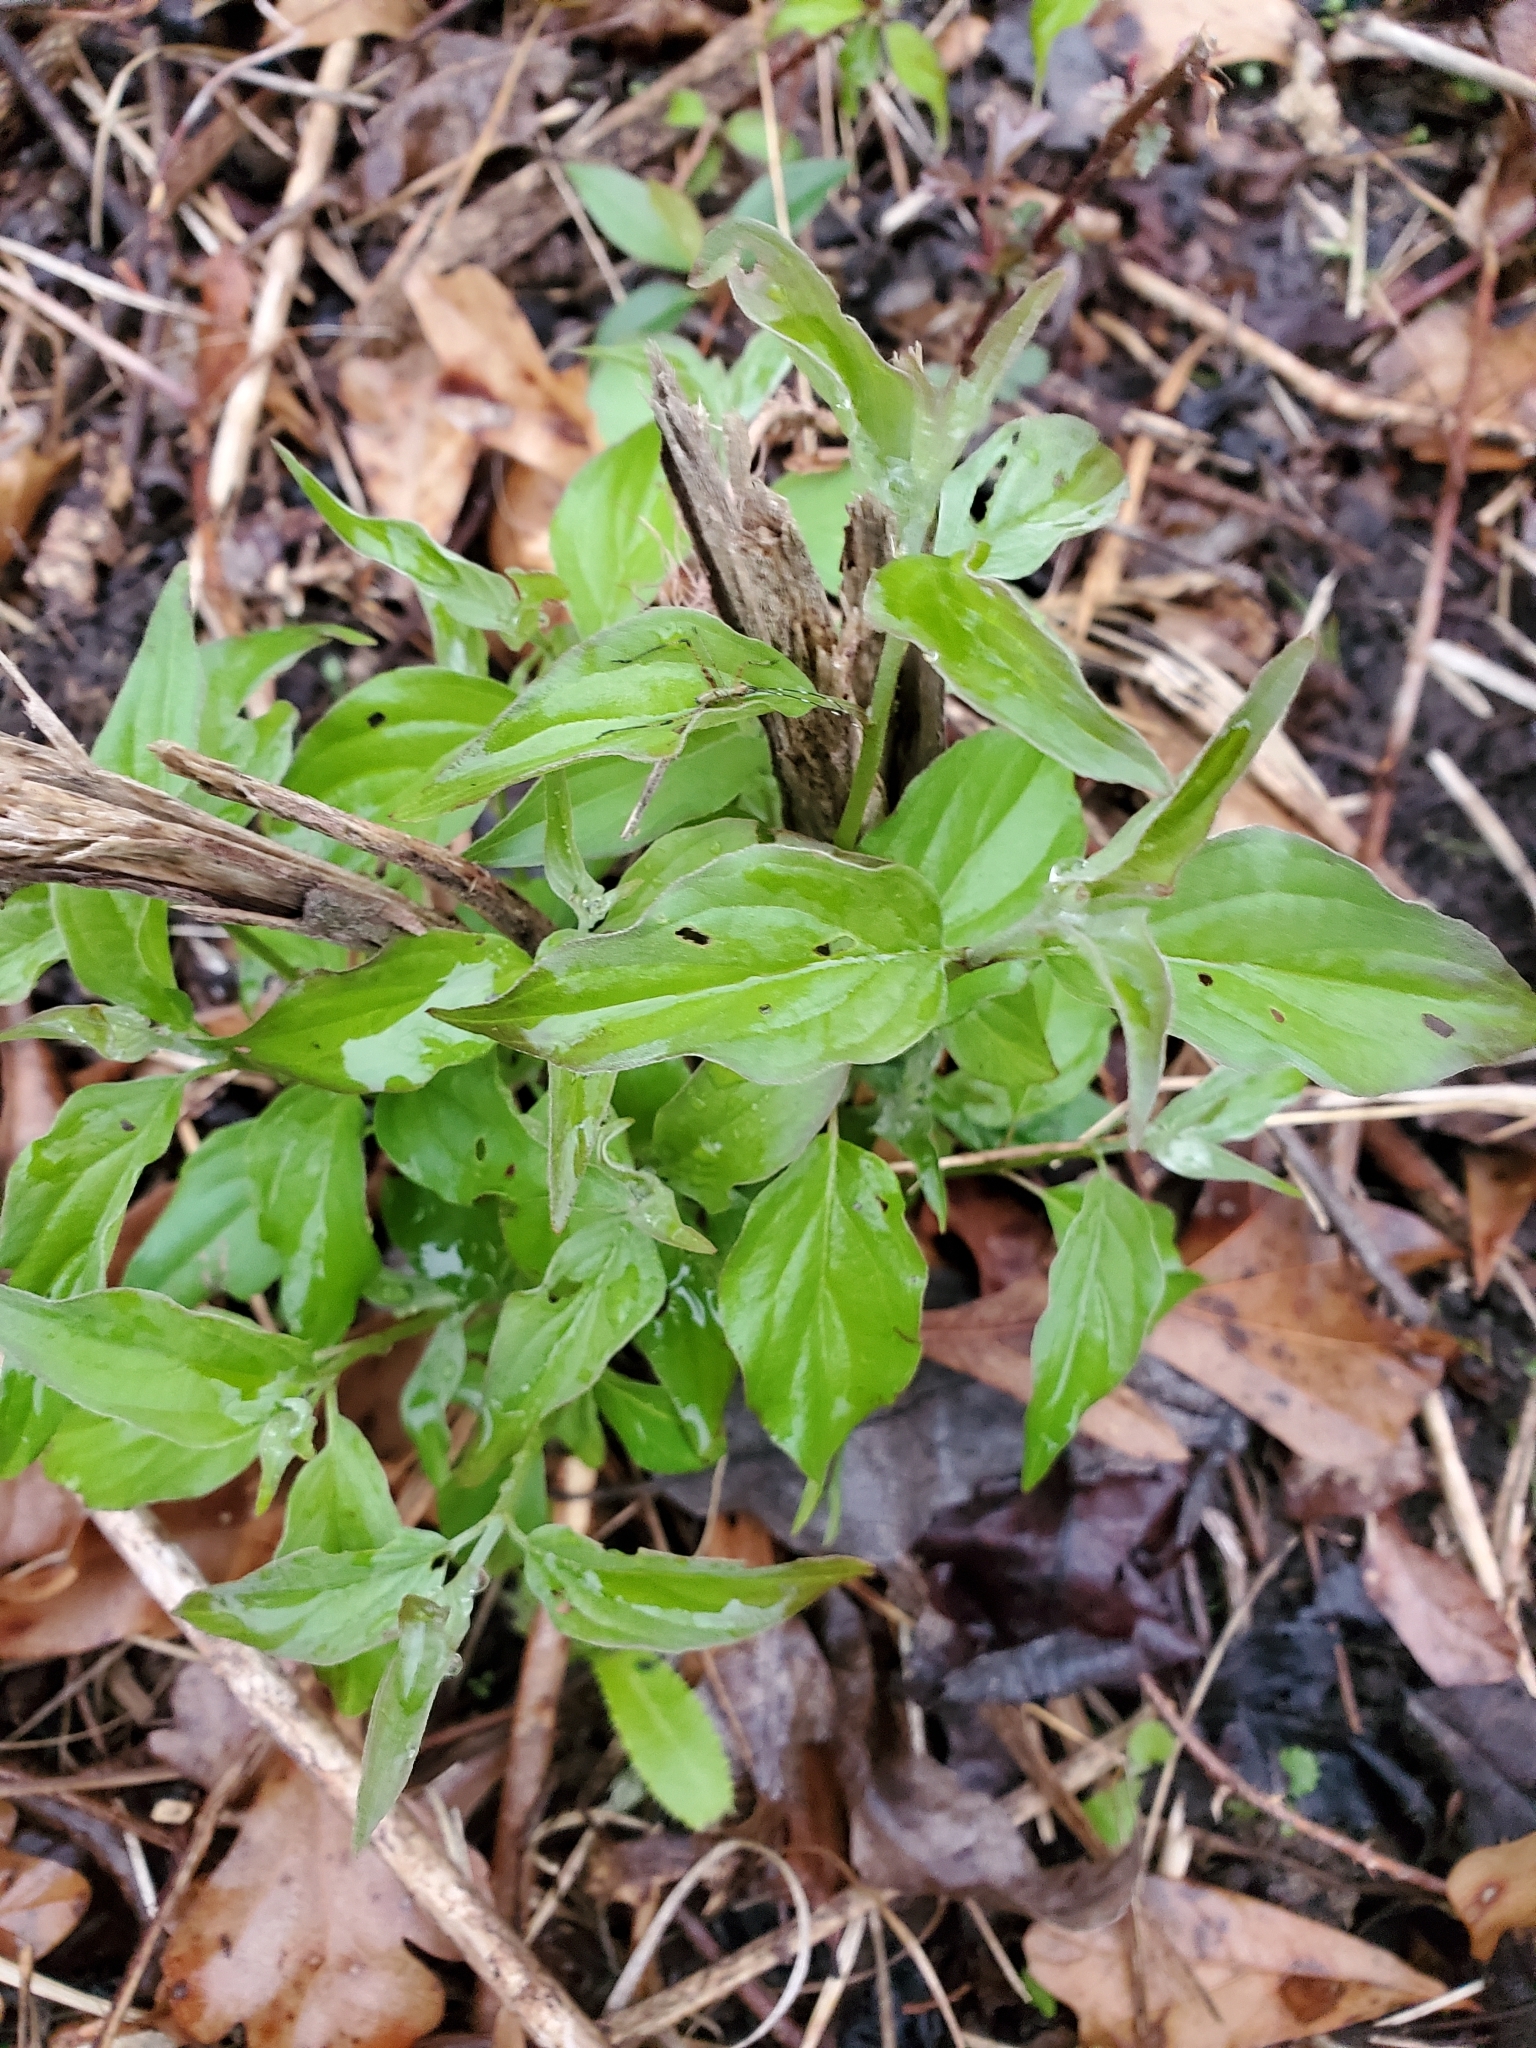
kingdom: Plantae
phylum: Tracheophyta
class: Magnoliopsida
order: Cornales
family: Cornaceae
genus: Cornus
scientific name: Cornus drummondii
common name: Rough-leaf dogwood
